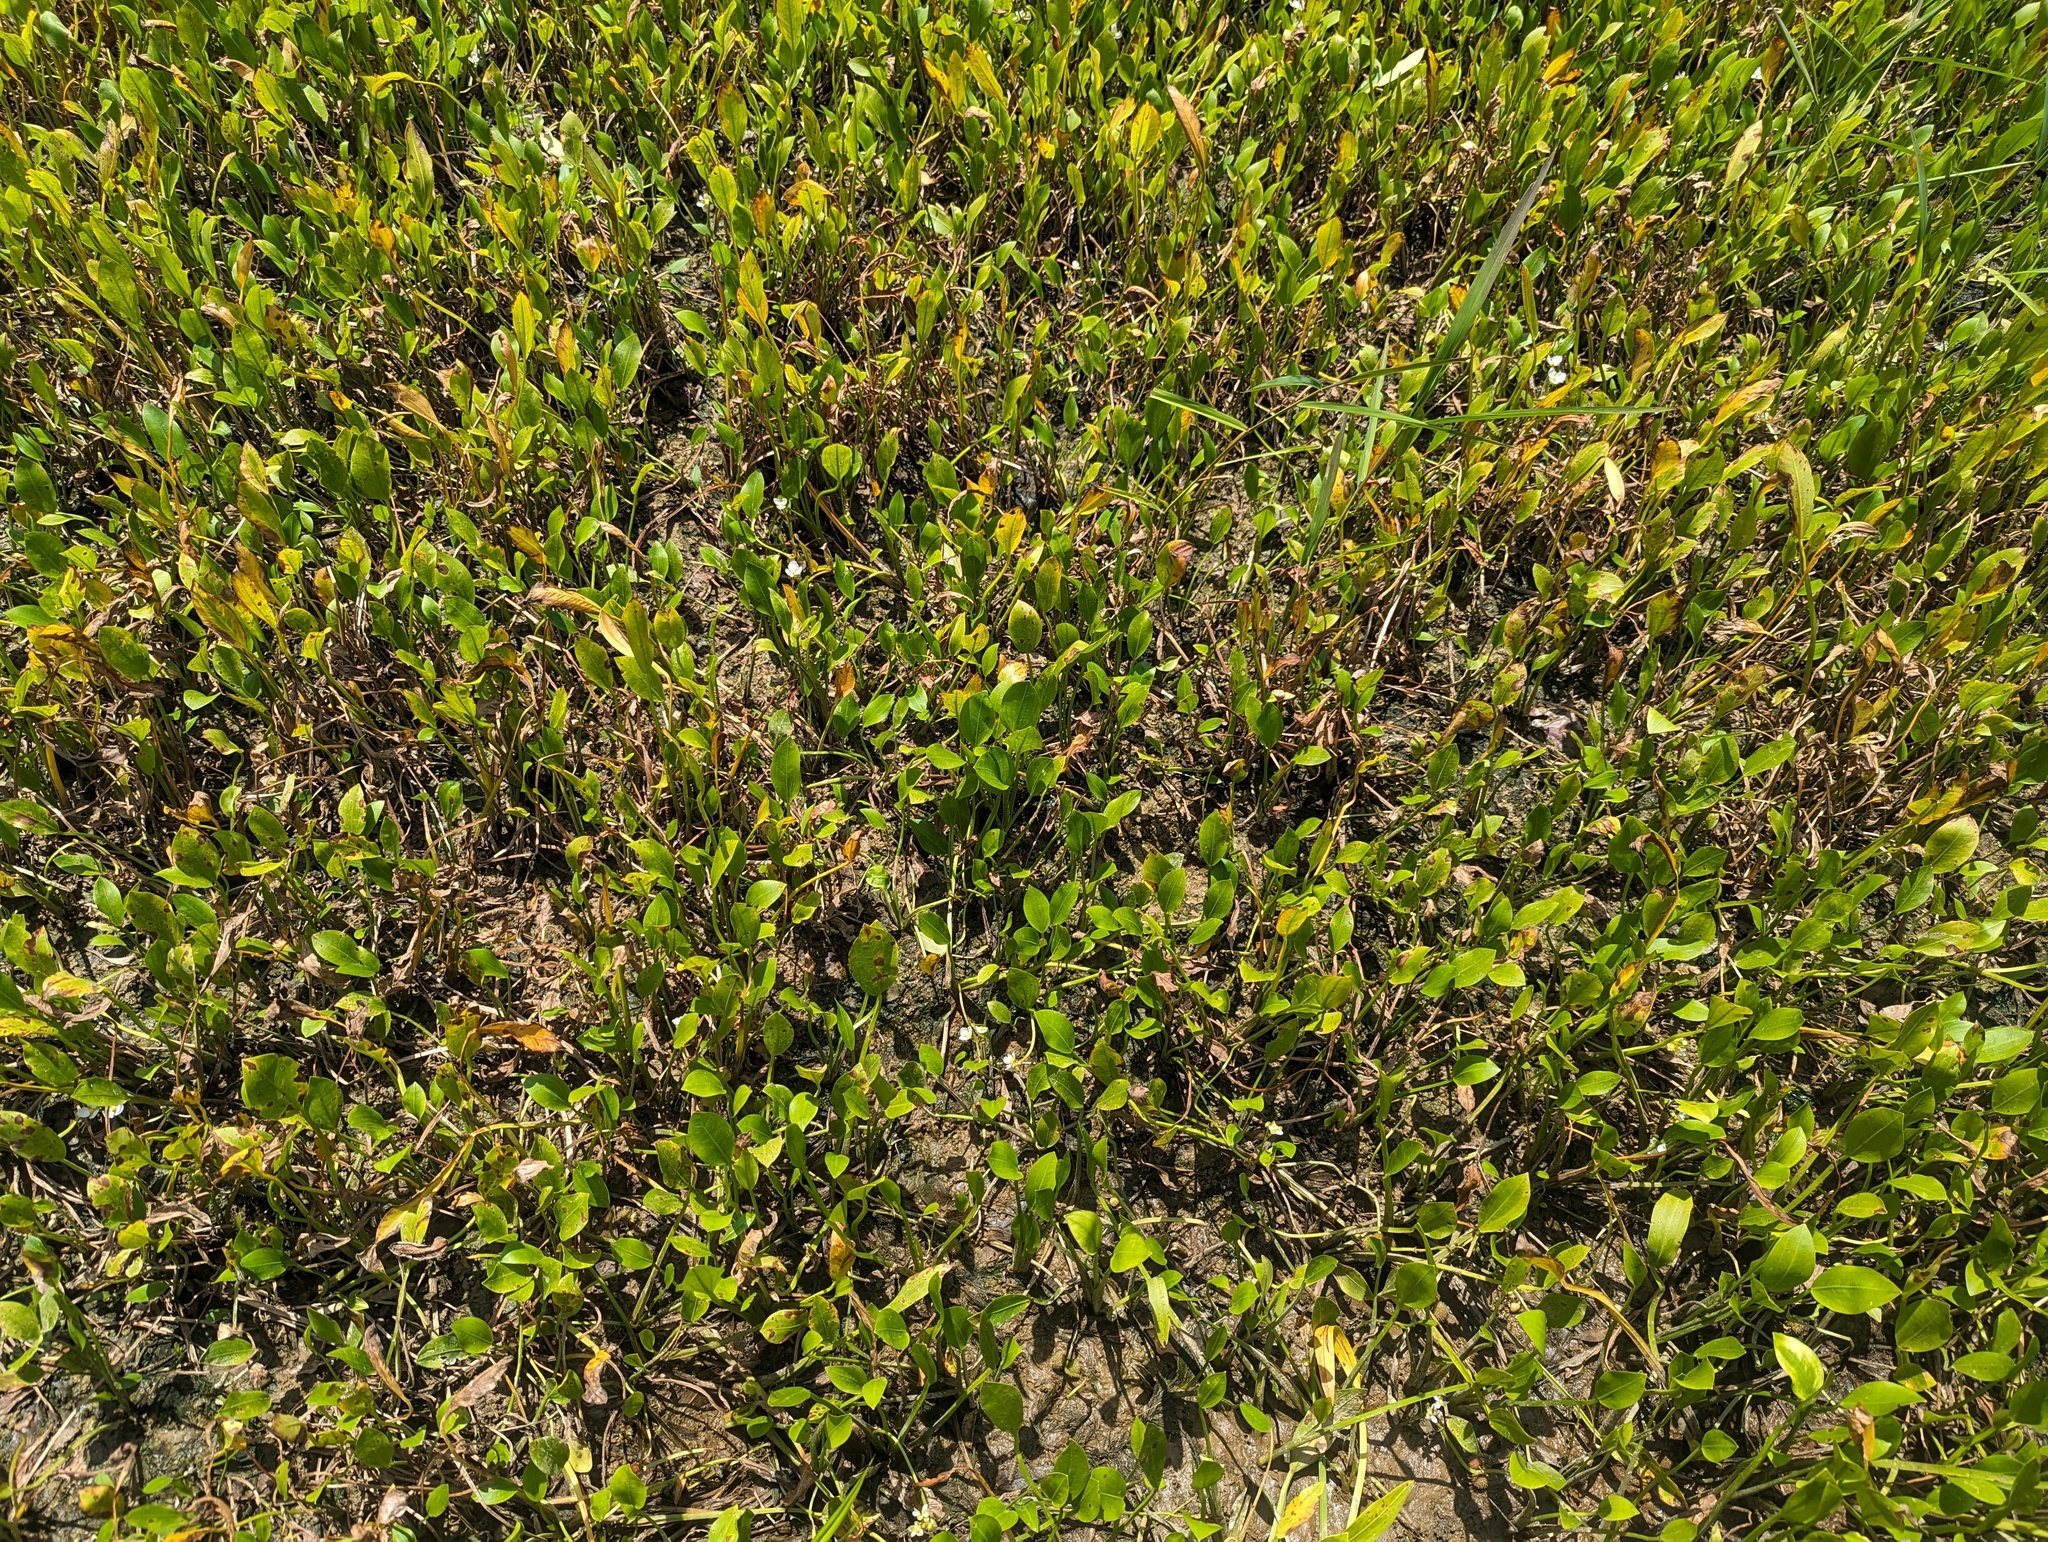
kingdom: Plantae
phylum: Tracheophyta
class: Liliopsida
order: Alismatales
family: Alismataceae
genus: Sagittaria
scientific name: Sagittaria rigida
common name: Canadian arrowhead
